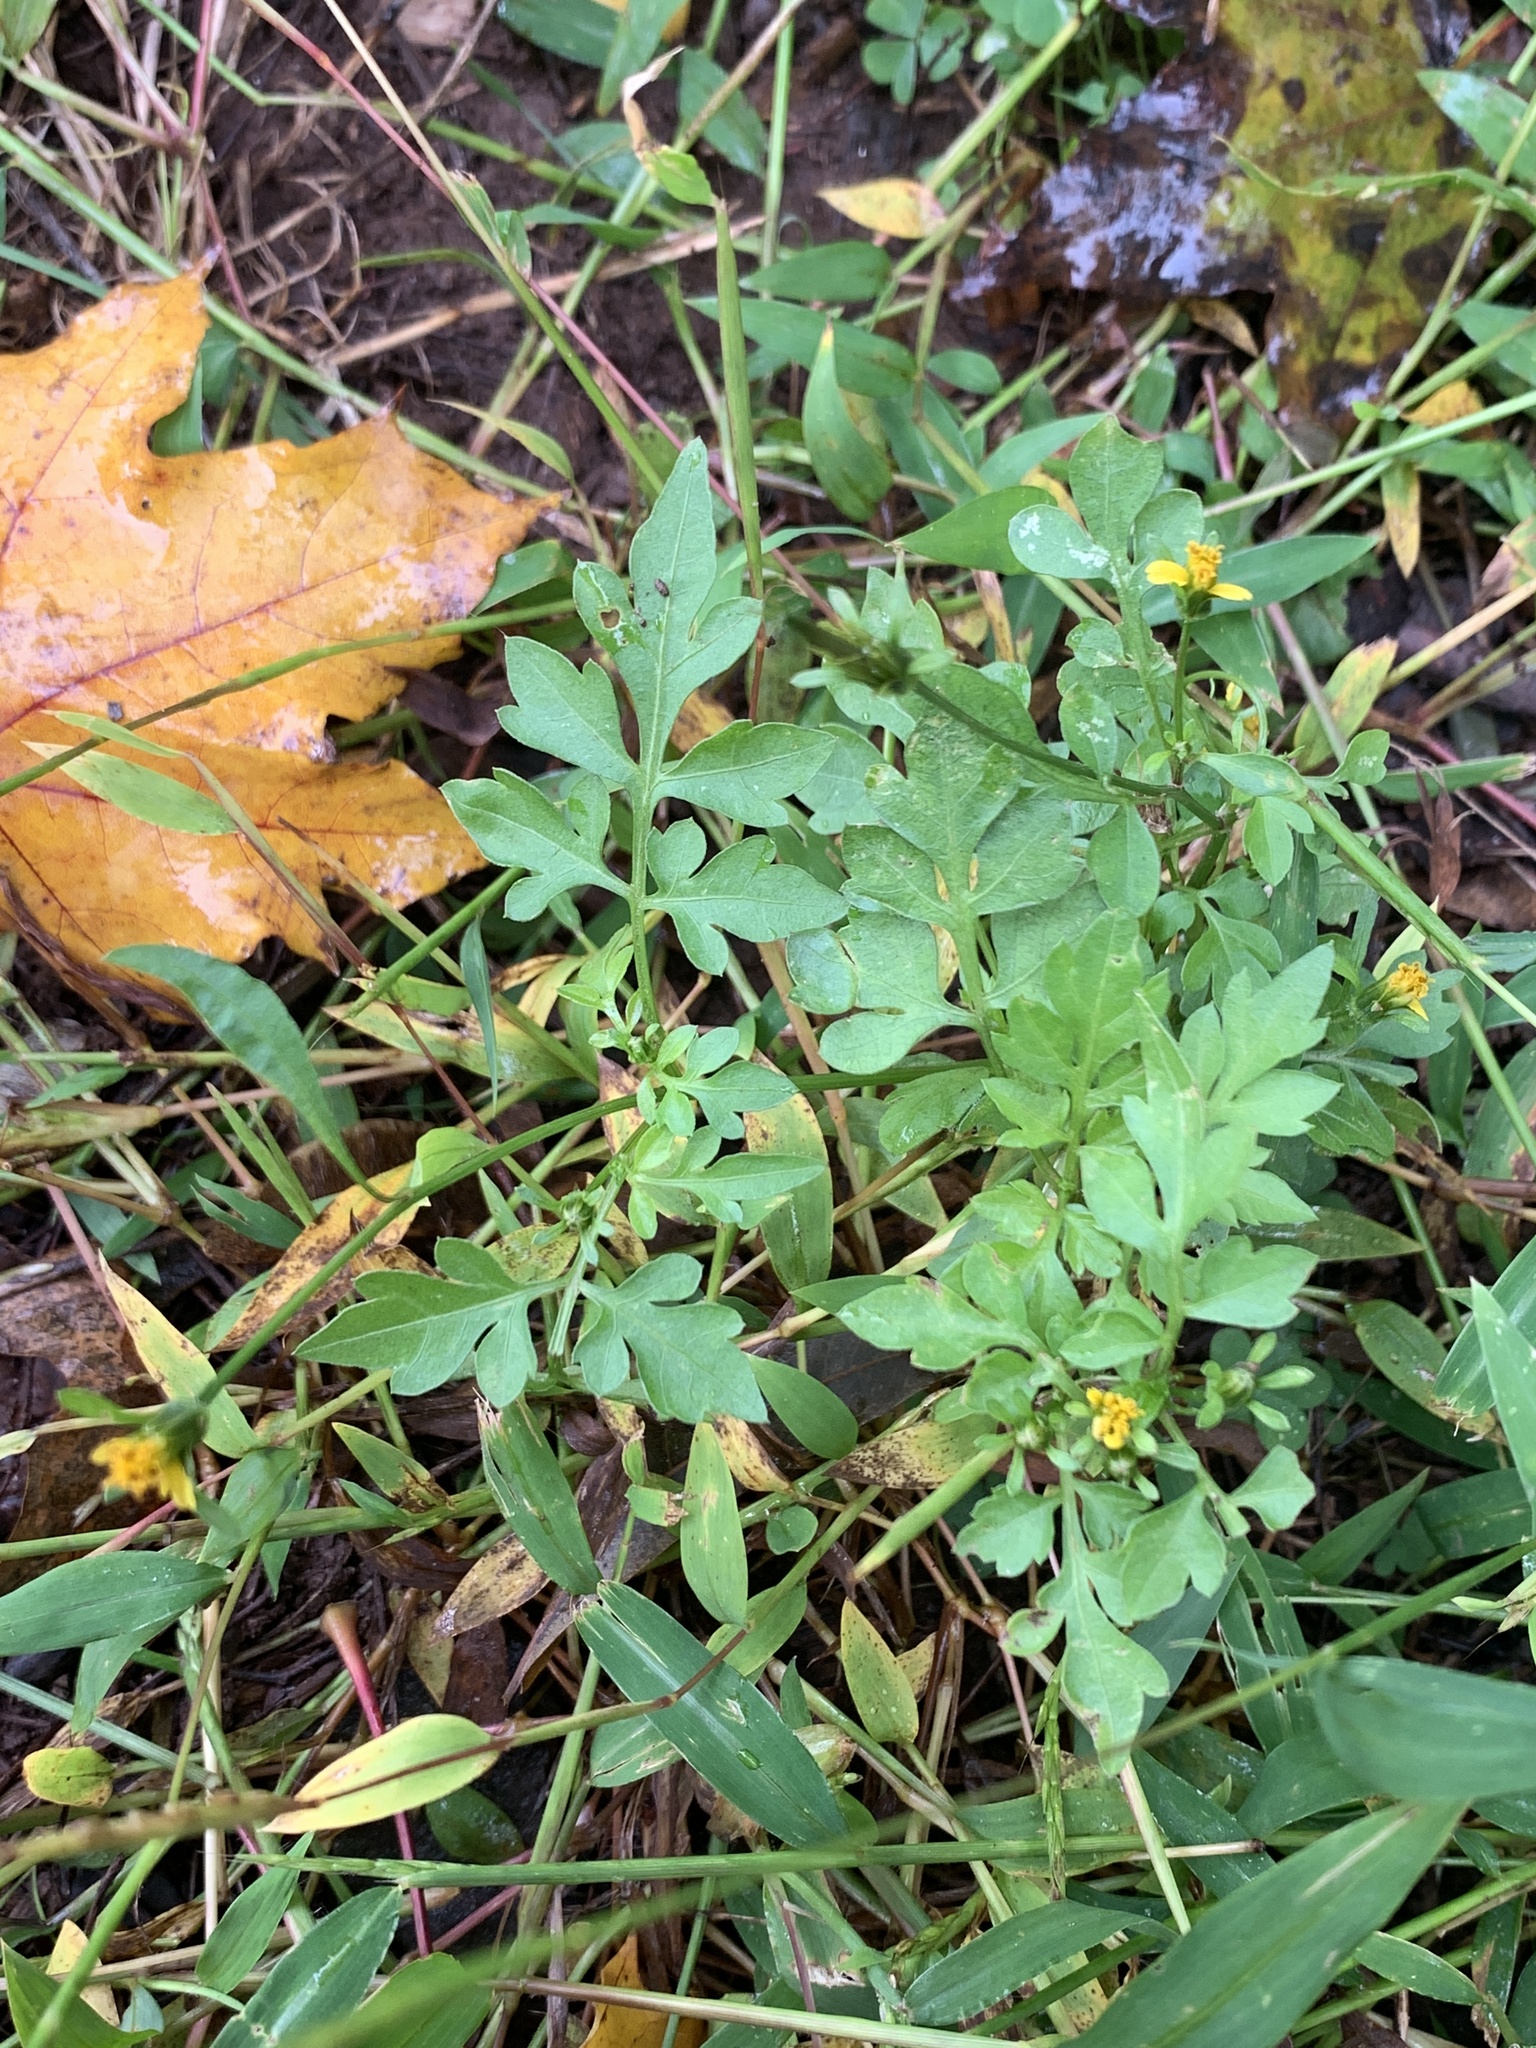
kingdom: Plantae
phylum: Tracheophyta
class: Magnoliopsida
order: Asterales
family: Asteraceae
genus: Bidens
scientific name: Bidens bipinnata
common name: Spanish-needles
